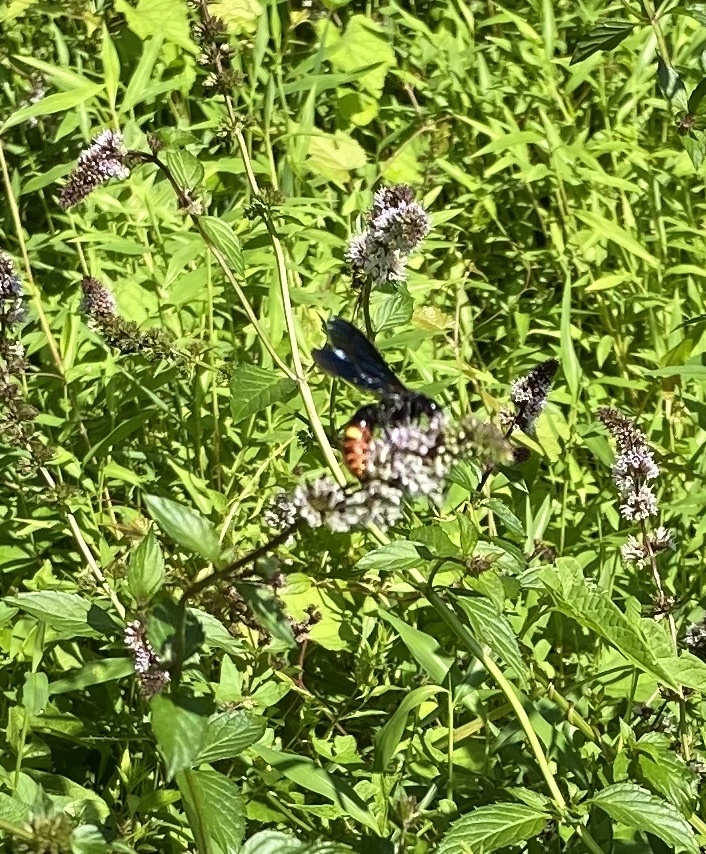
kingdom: Animalia
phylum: Arthropoda
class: Insecta
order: Hymenoptera
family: Scoliidae
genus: Scolia
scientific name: Scolia dubia
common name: Blue-winged scoliid wasp
